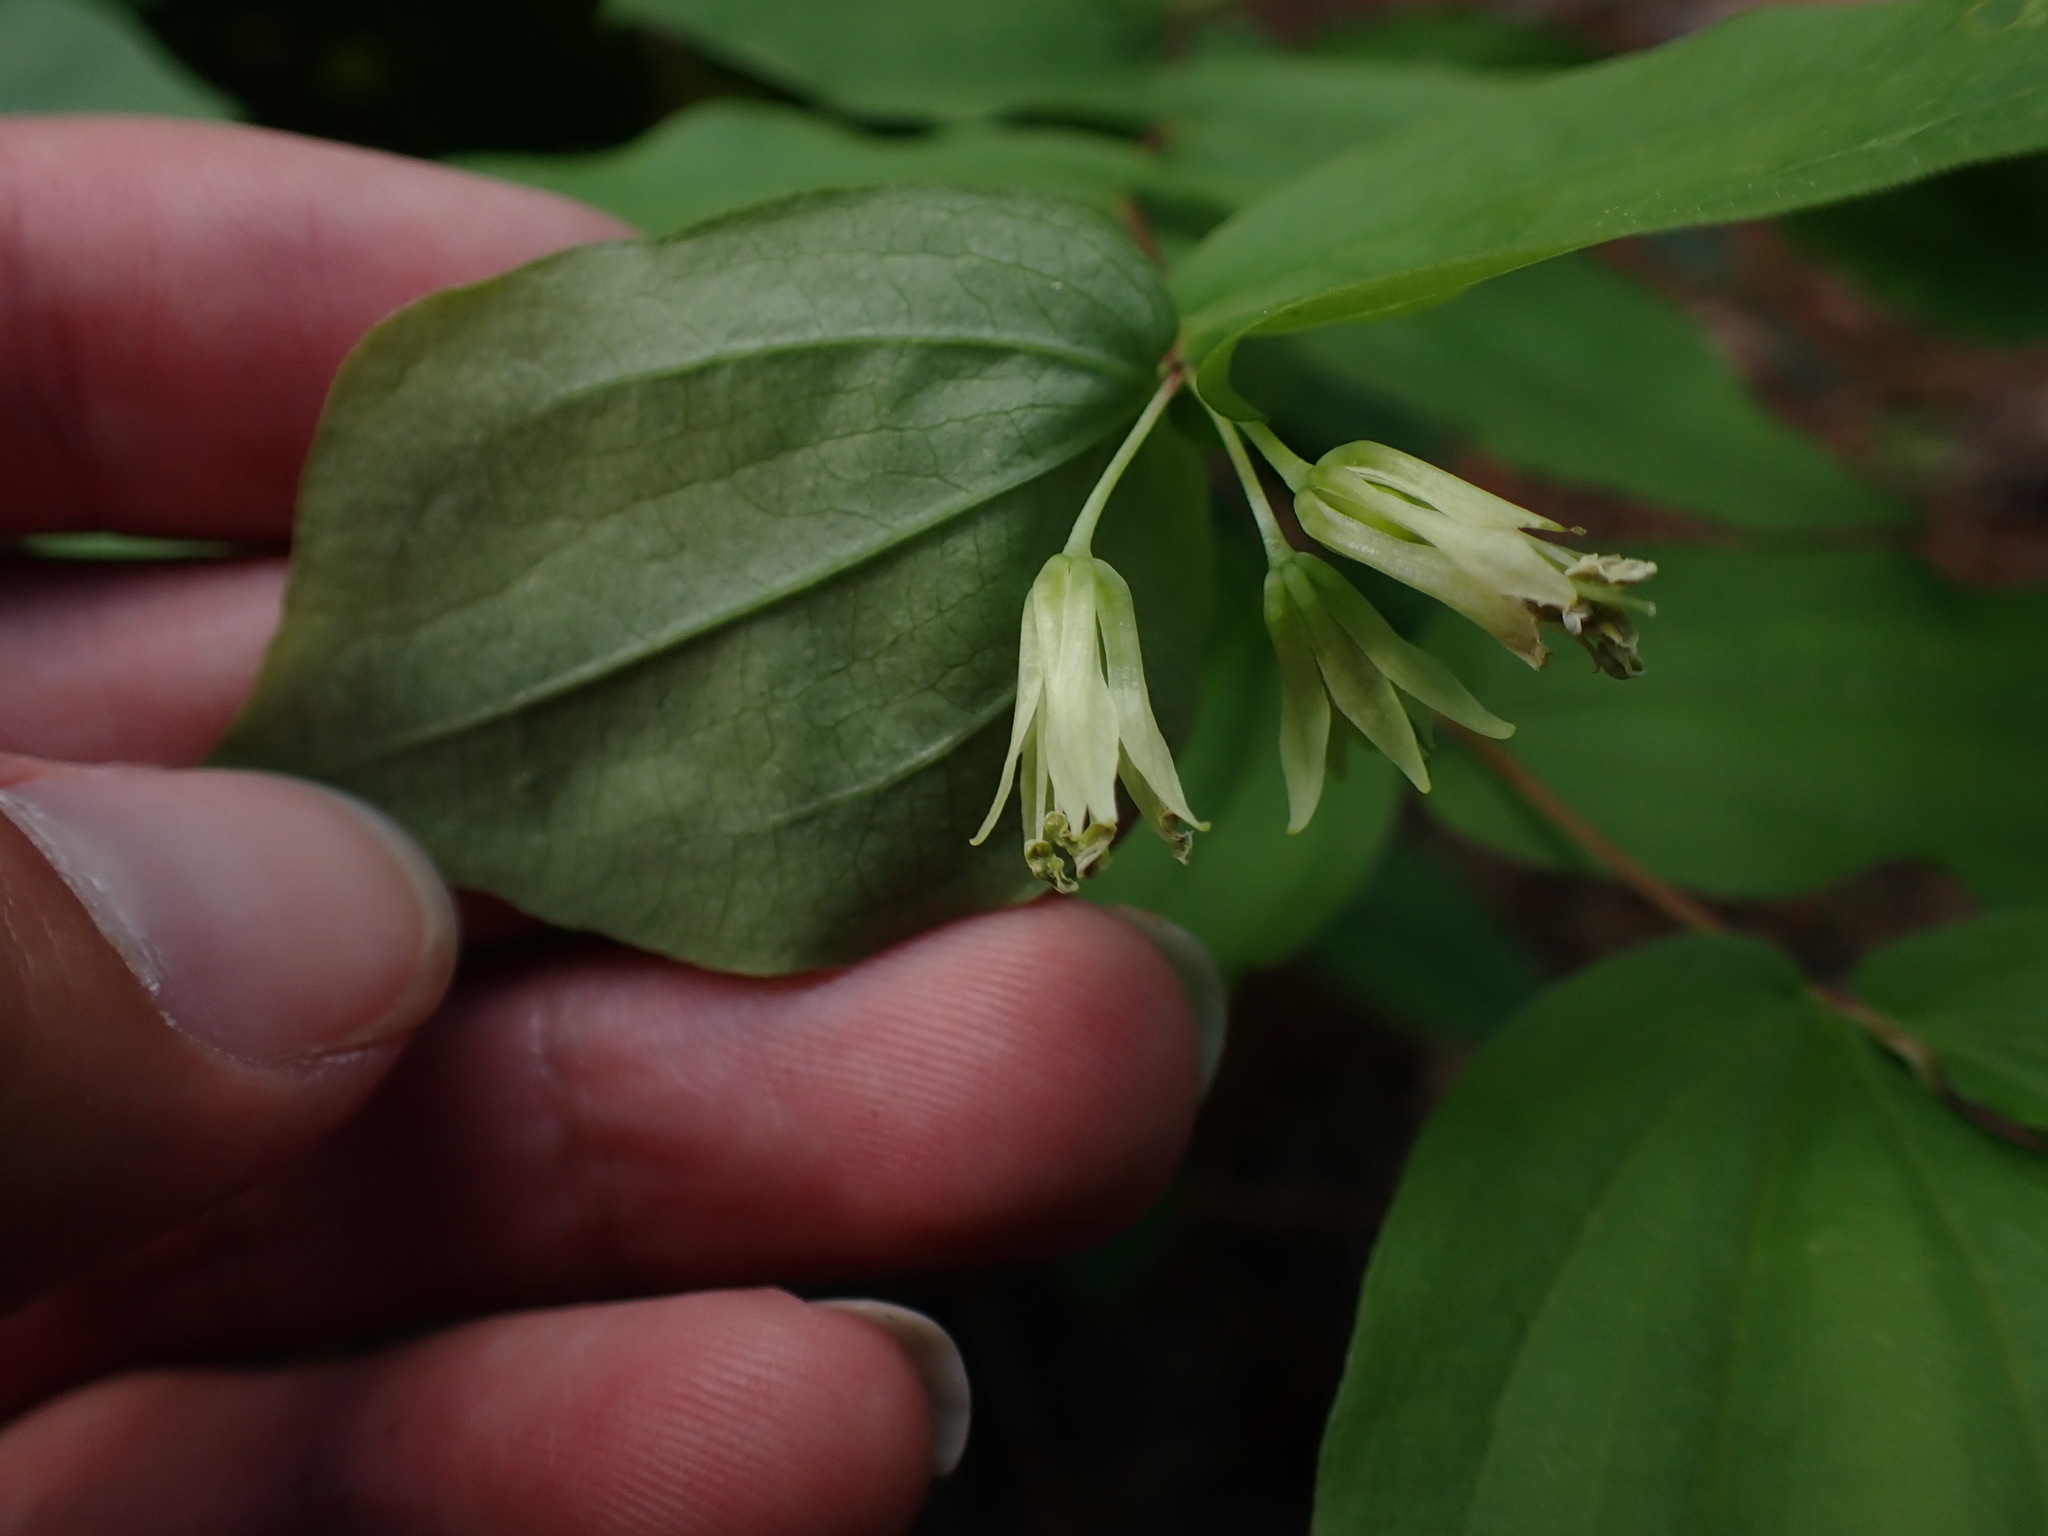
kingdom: Plantae
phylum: Tracheophyta
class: Liliopsida
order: Liliales
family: Liliaceae
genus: Prosartes
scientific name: Prosartes hookeri
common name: Fairy-bells
